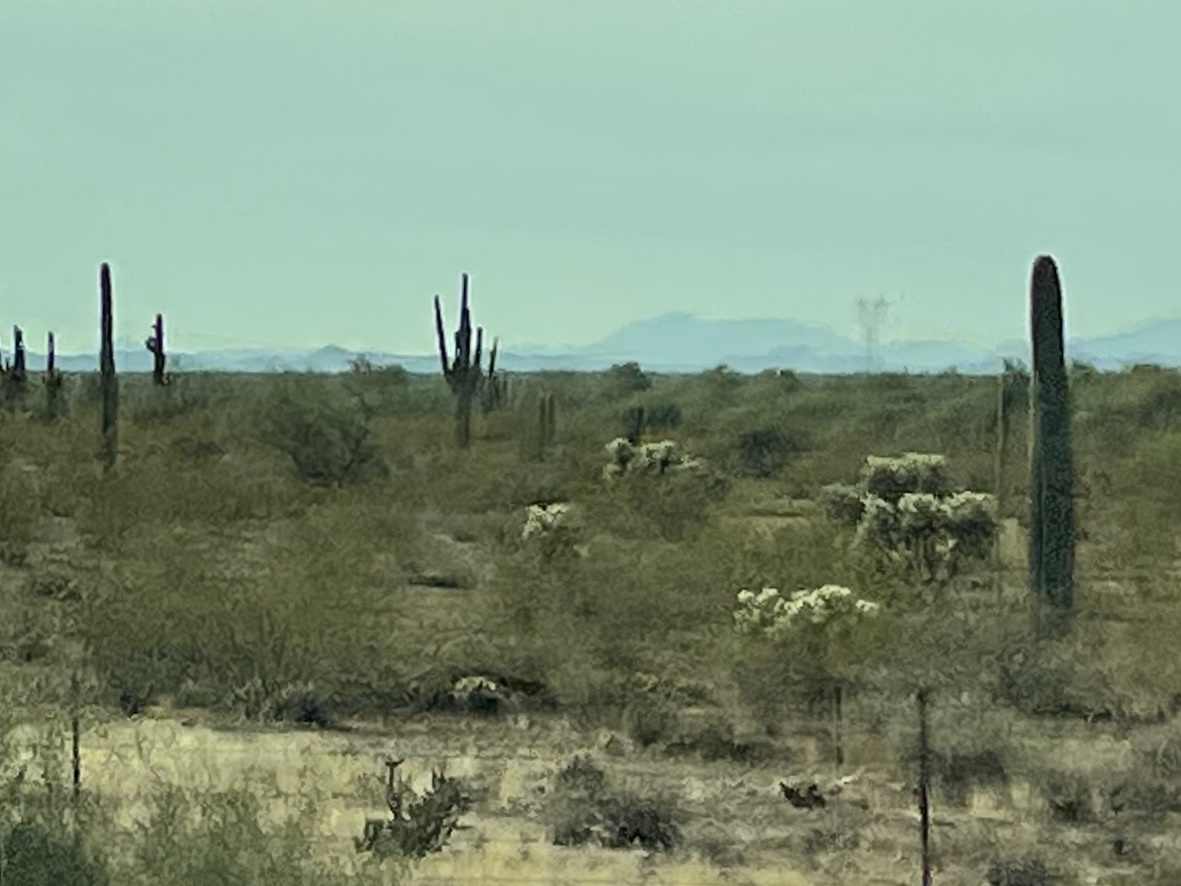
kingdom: Plantae
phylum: Tracheophyta
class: Magnoliopsida
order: Caryophyllales
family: Cactaceae
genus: Carnegiea
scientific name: Carnegiea gigantea
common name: Saguaro
